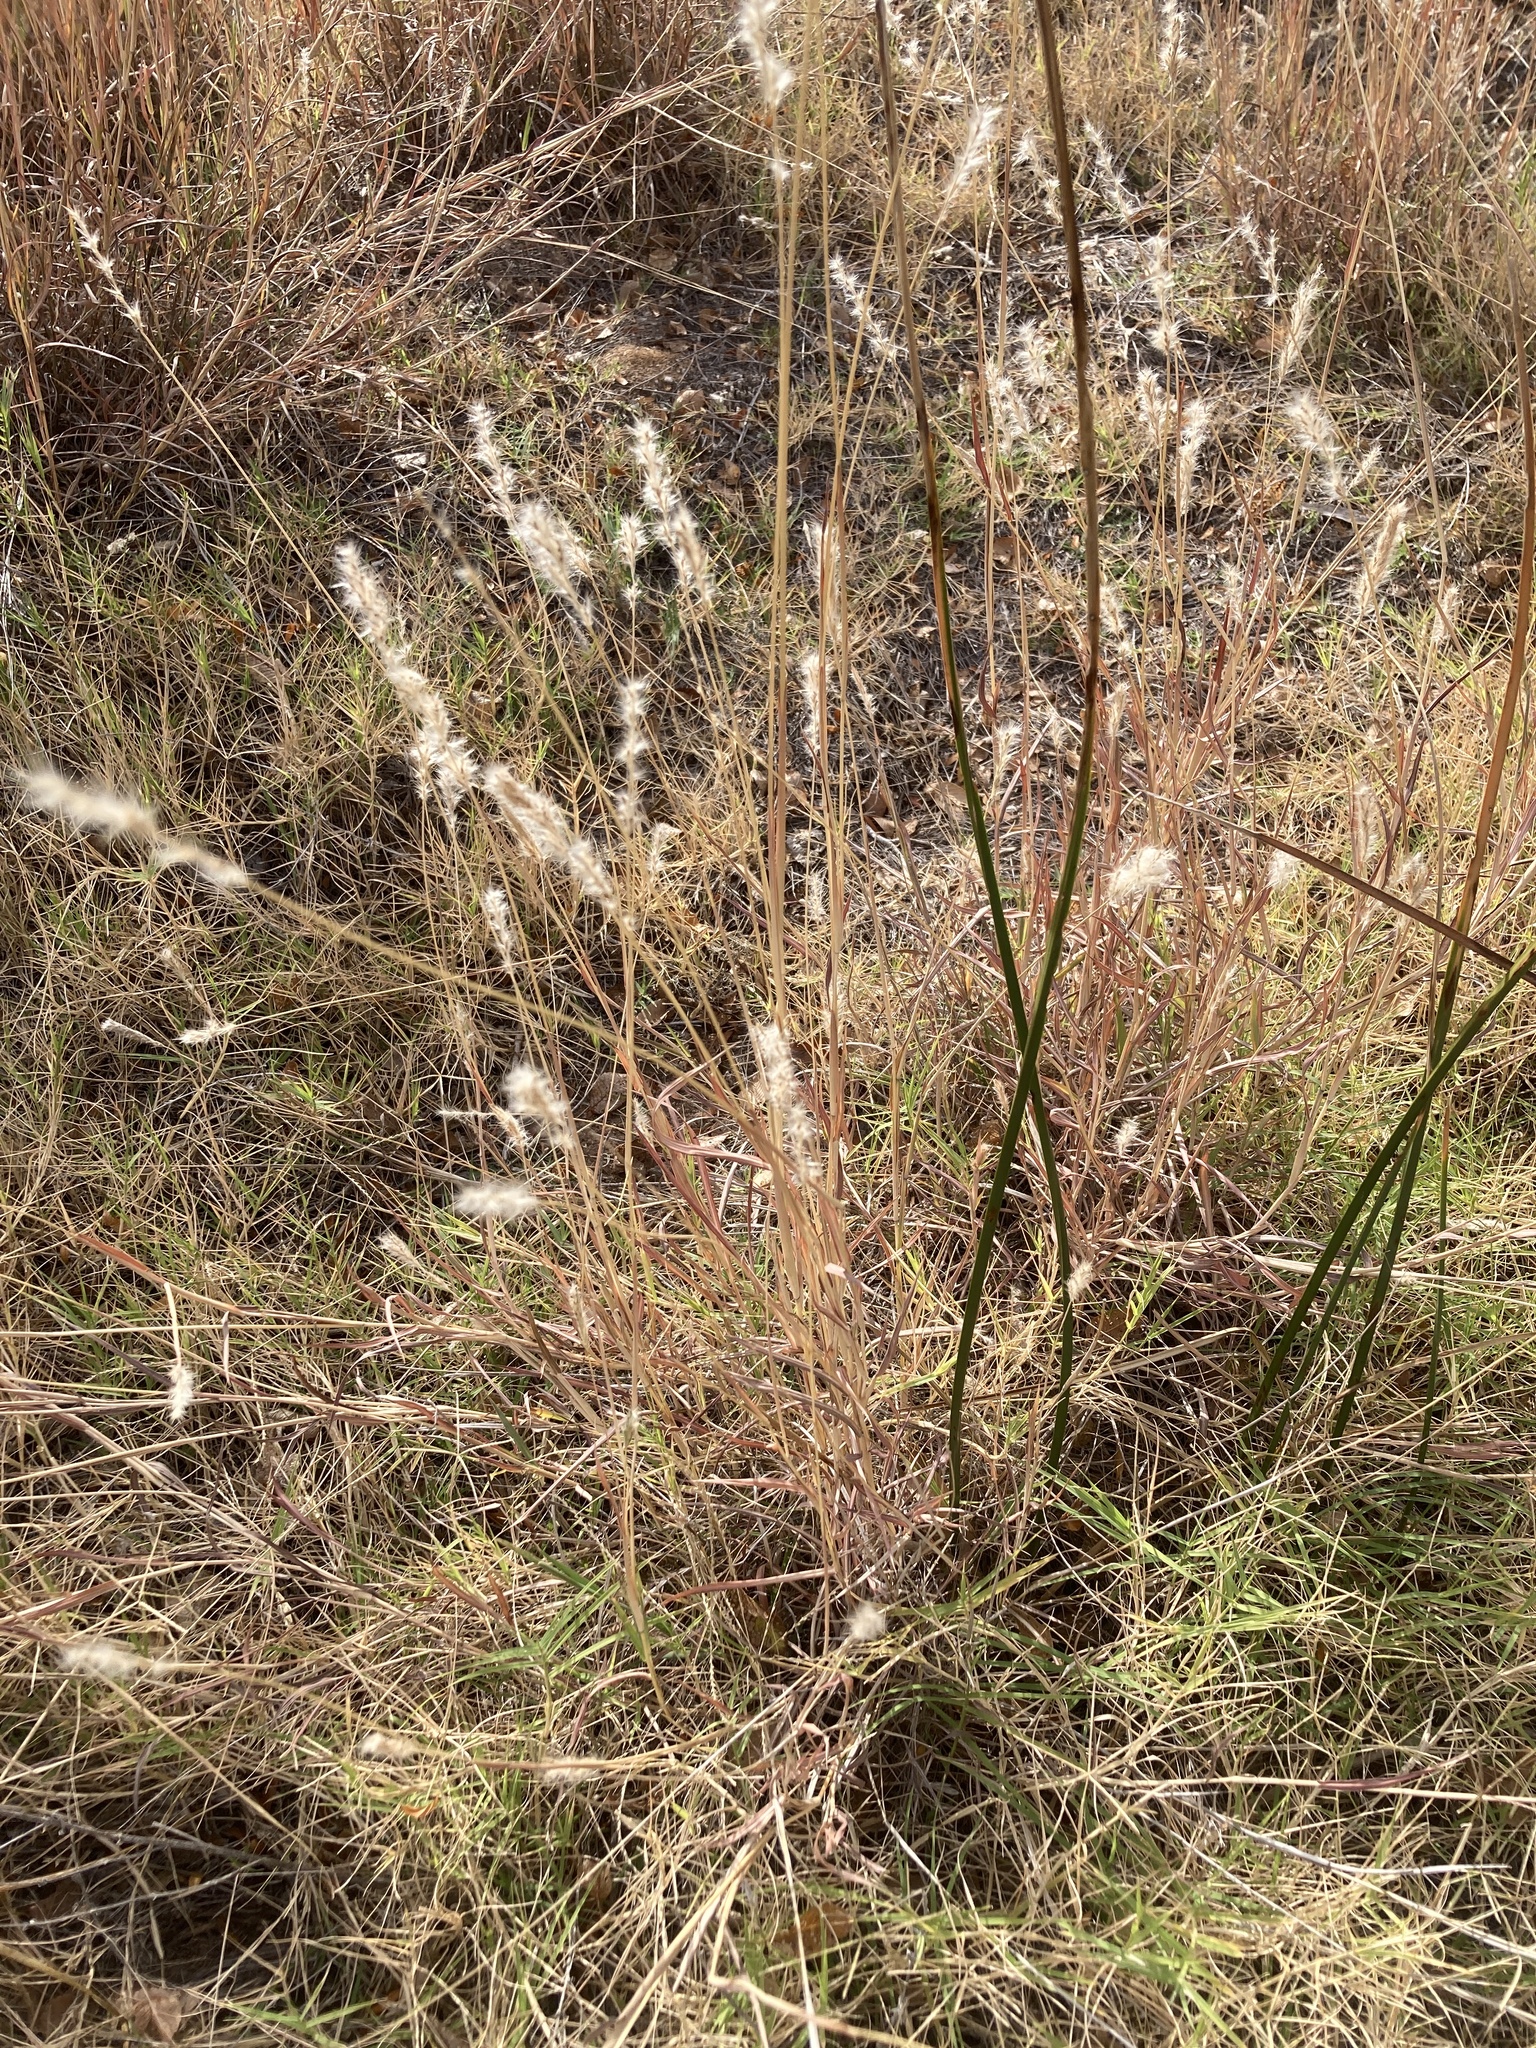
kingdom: Plantae
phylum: Tracheophyta
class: Liliopsida
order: Poales
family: Poaceae
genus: Bothriochloa
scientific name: Bothriochloa torreyana
